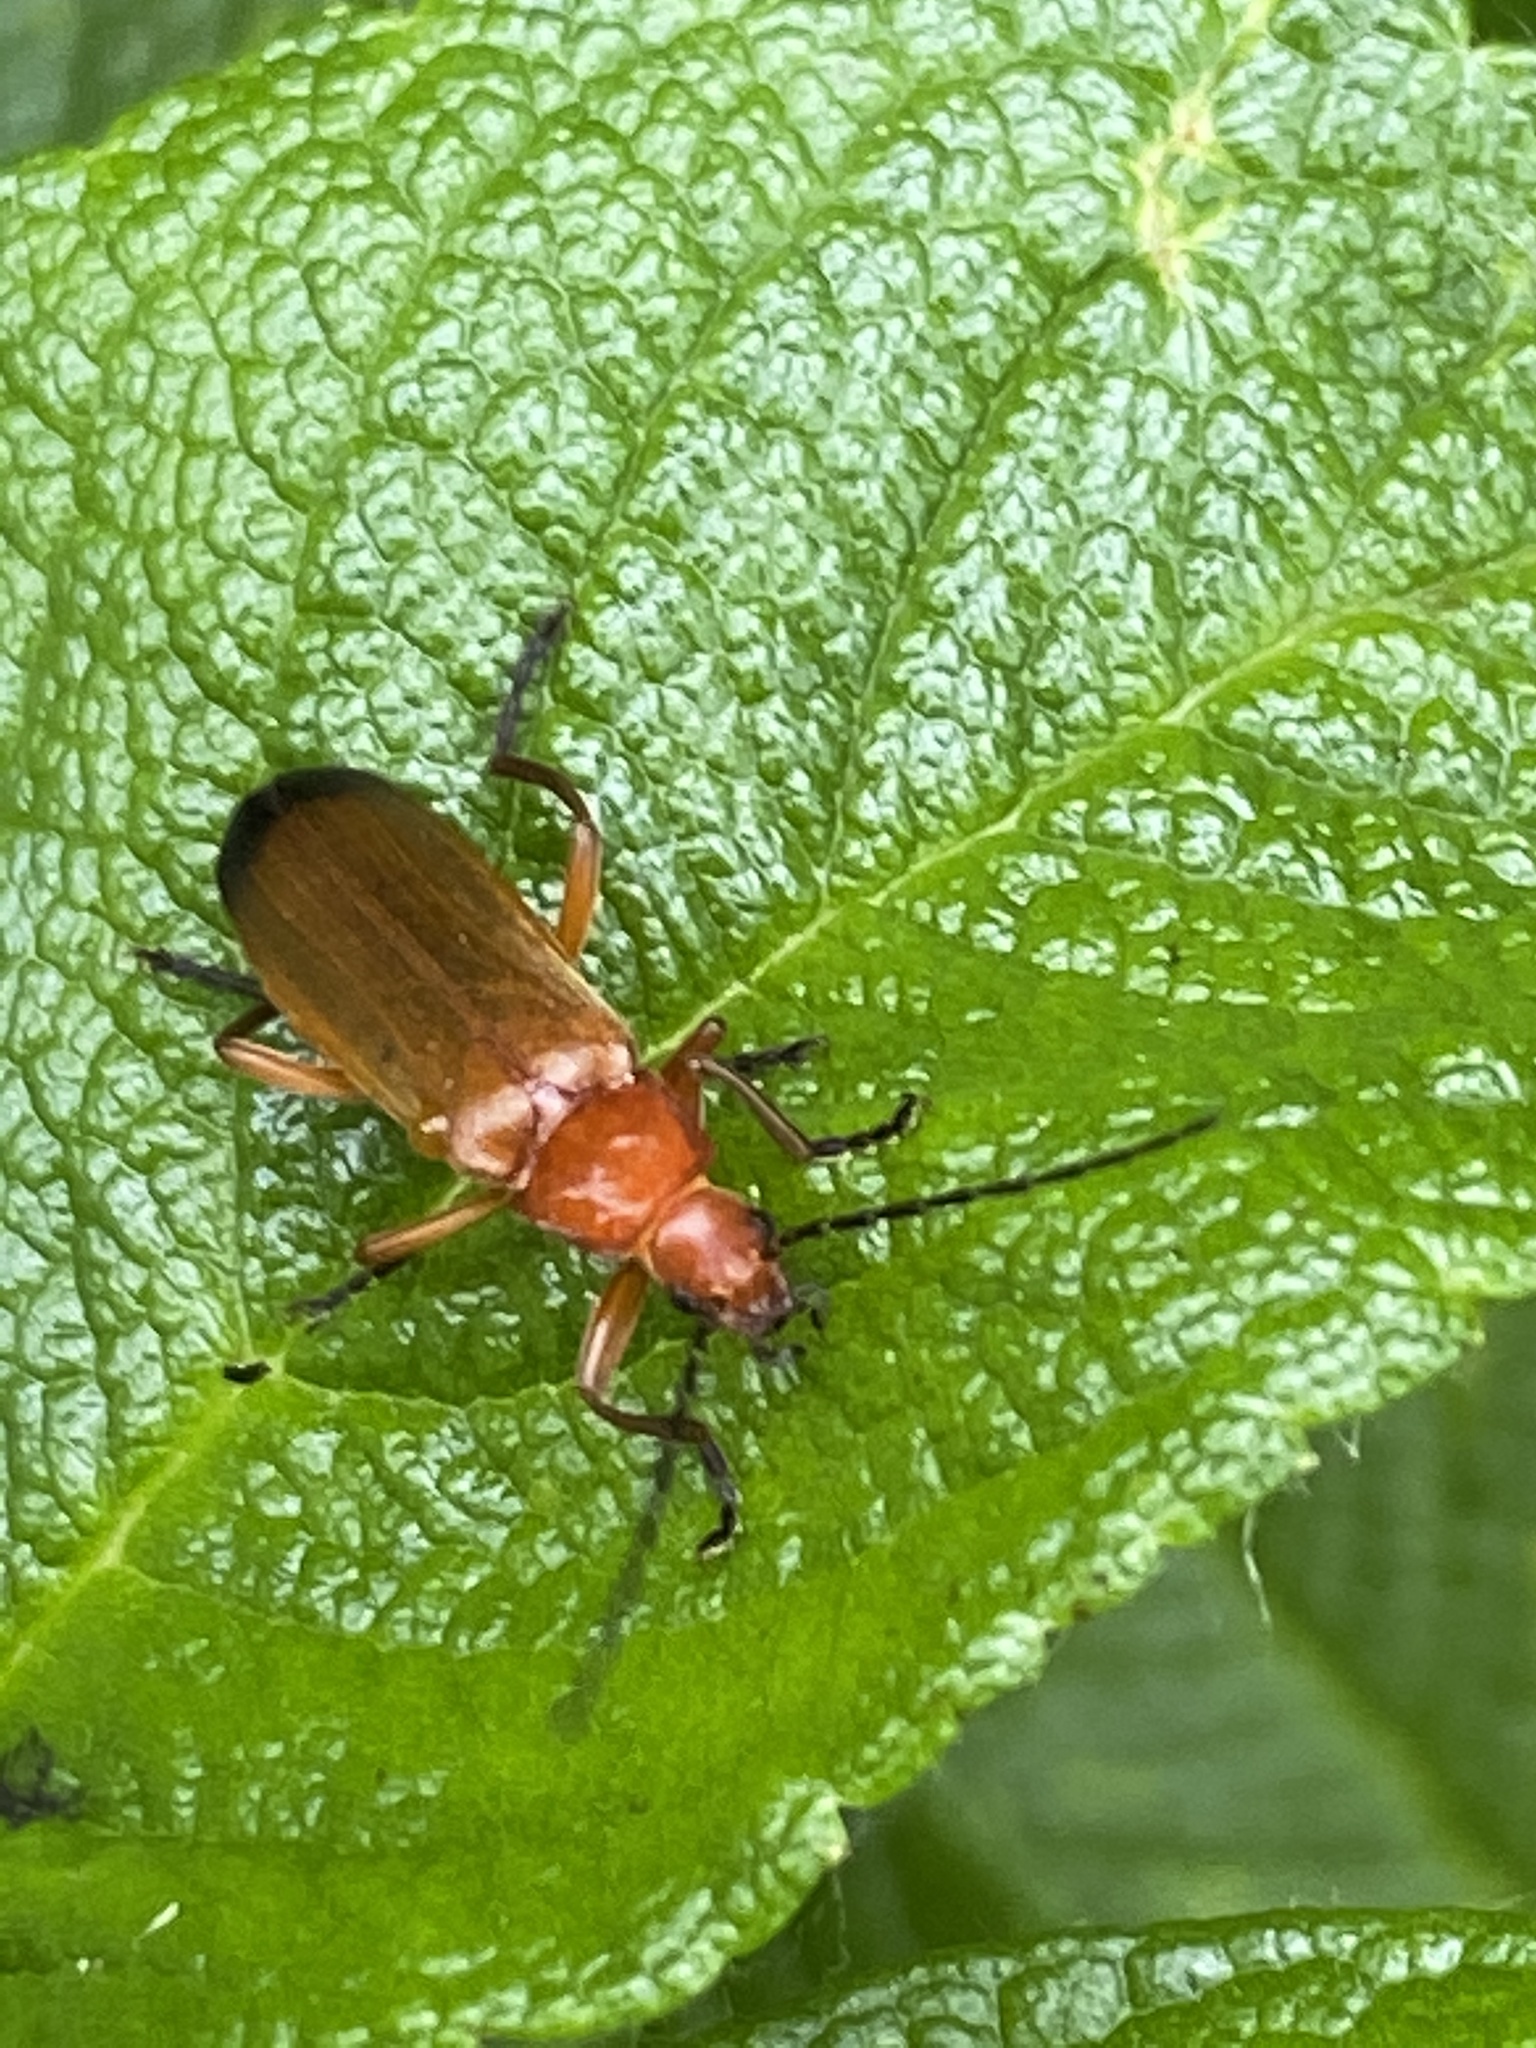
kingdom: Animalia
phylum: Arthropoda
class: Insecta
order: Coleoptera
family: Cantharidae
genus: Rhagonycha
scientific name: Rhagonycha fulva
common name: Common red soldier beetle
